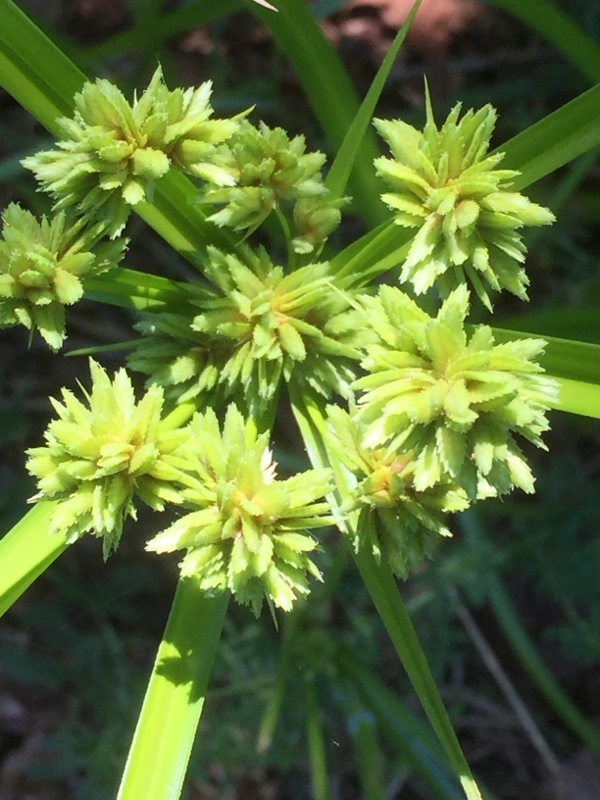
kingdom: Plantae
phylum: Tracheophyta
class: Liliopsida
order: Poales
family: Cyperaceae
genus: Cyperus
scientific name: Cyperus eragrostis
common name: Tall flatsedge
